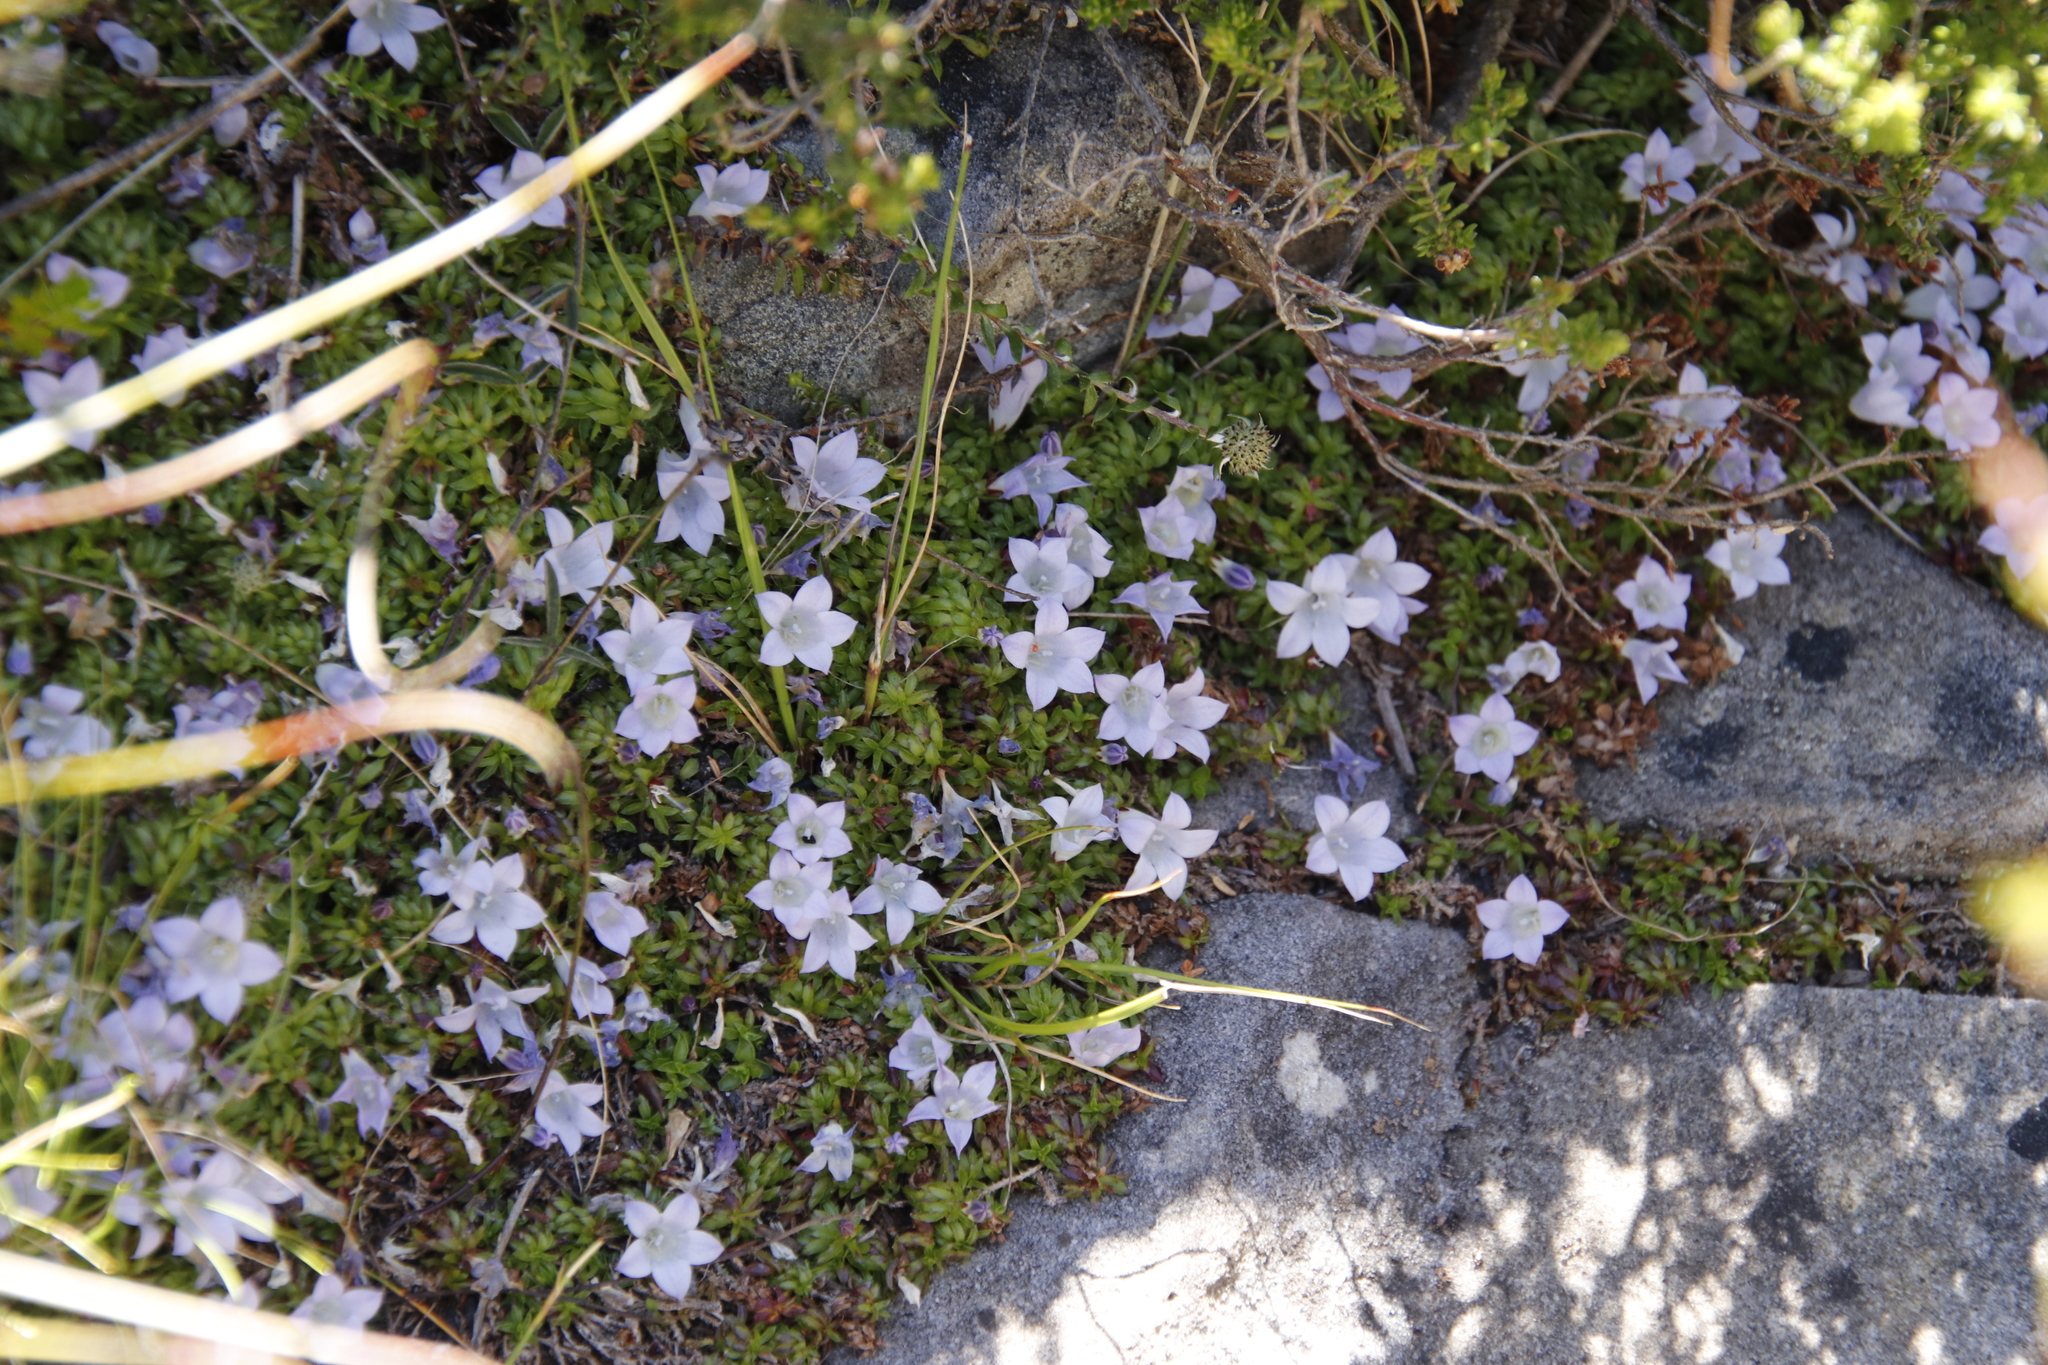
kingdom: Plantae
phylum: Tracheophyta
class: Magnoliopsida
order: Asterales
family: Campanulaceae
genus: Roella
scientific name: Roella muscosa
